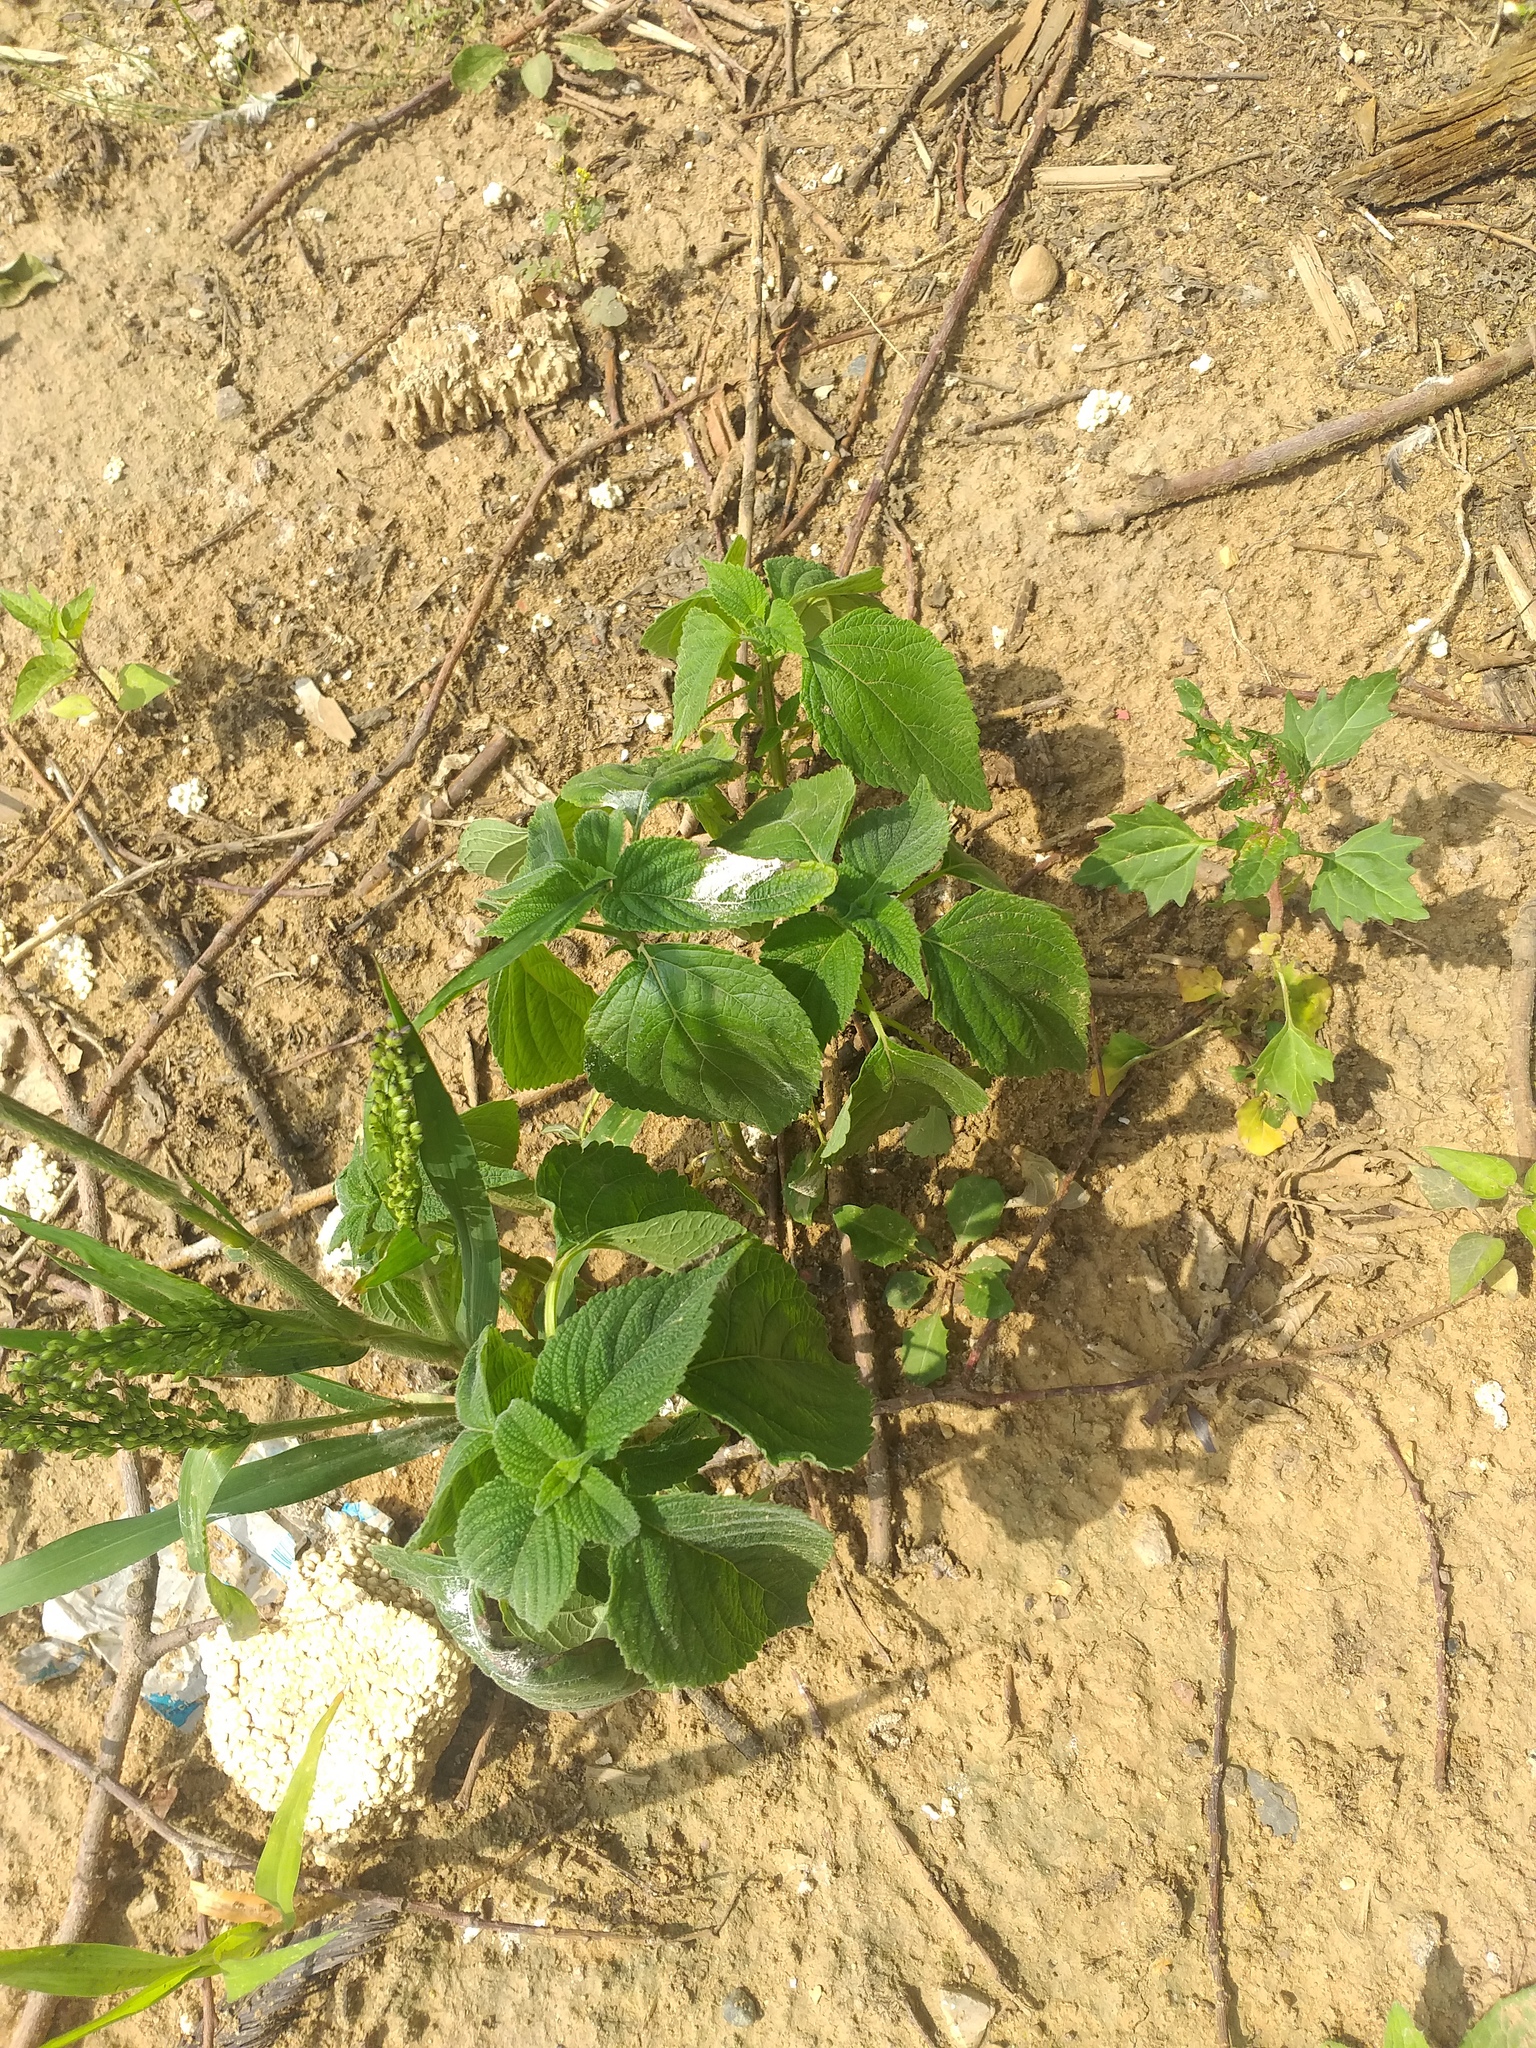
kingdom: Plantae
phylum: Tracheophyta
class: Magnoliopsida
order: Lamiales
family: Lamiaceae
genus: Salvia
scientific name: Salvia hispanica
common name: Chia
